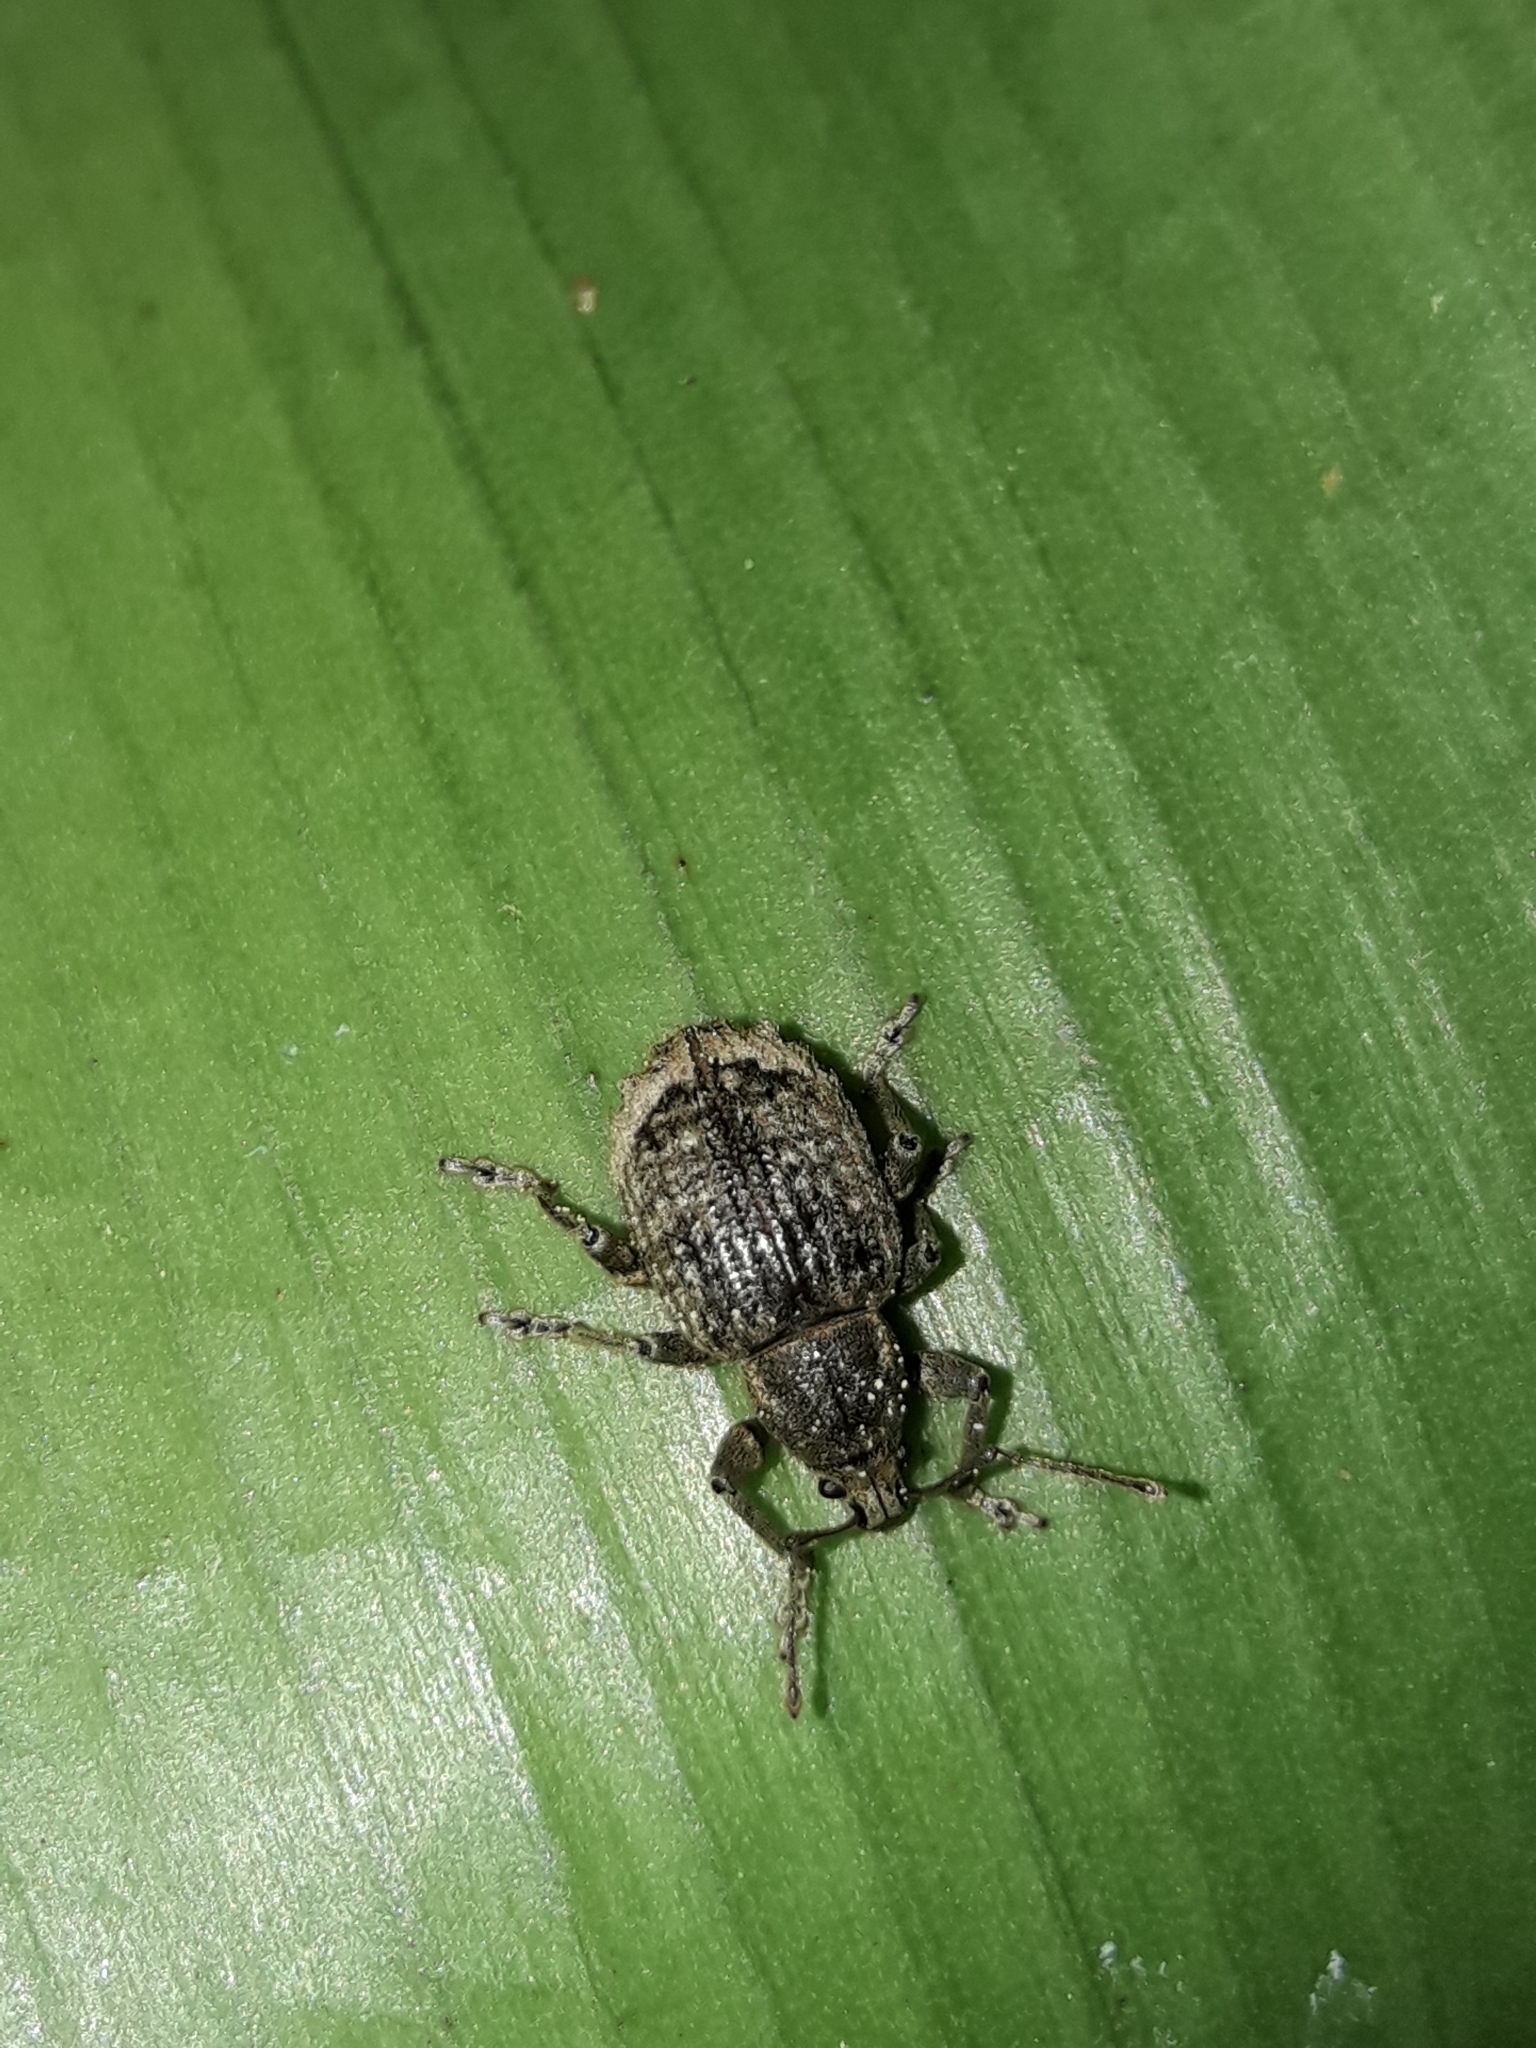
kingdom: Animalia
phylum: Arthropoda
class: Insecta
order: Coleoptera
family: Curculionidae
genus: Phlyctinus
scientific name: Phlyctinus callosus
